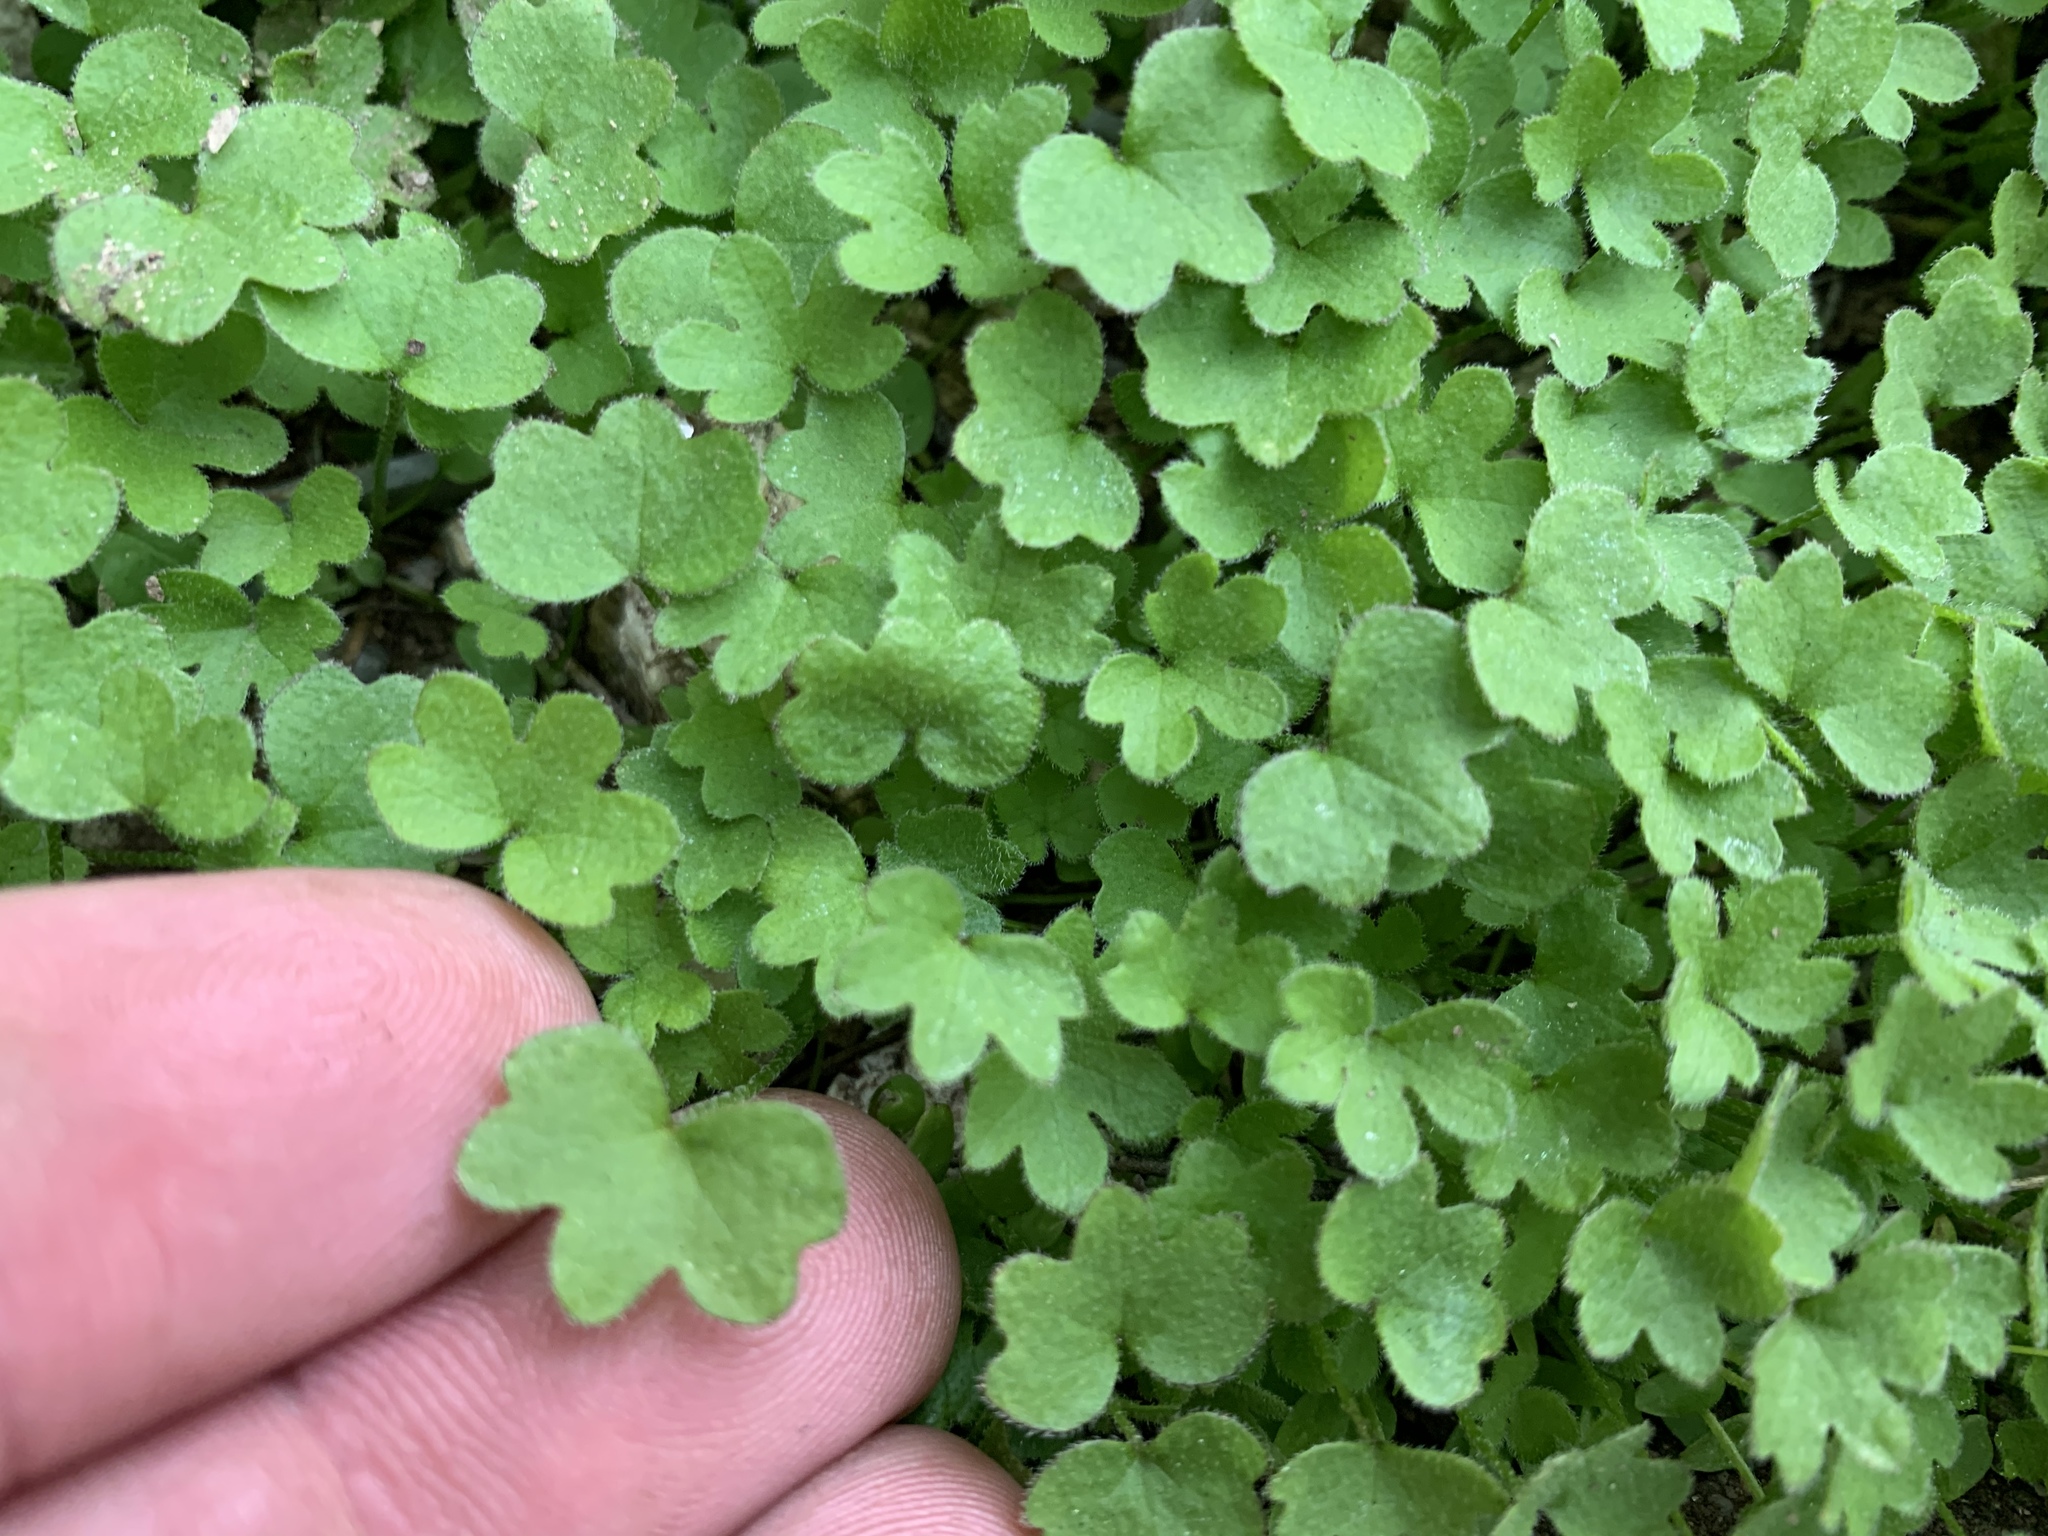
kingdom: Plantae
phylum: Tracheophyta
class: Magnoliopsida
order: Apiales
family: Apiaceae
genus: Bowlesia
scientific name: Bowlesia incana
